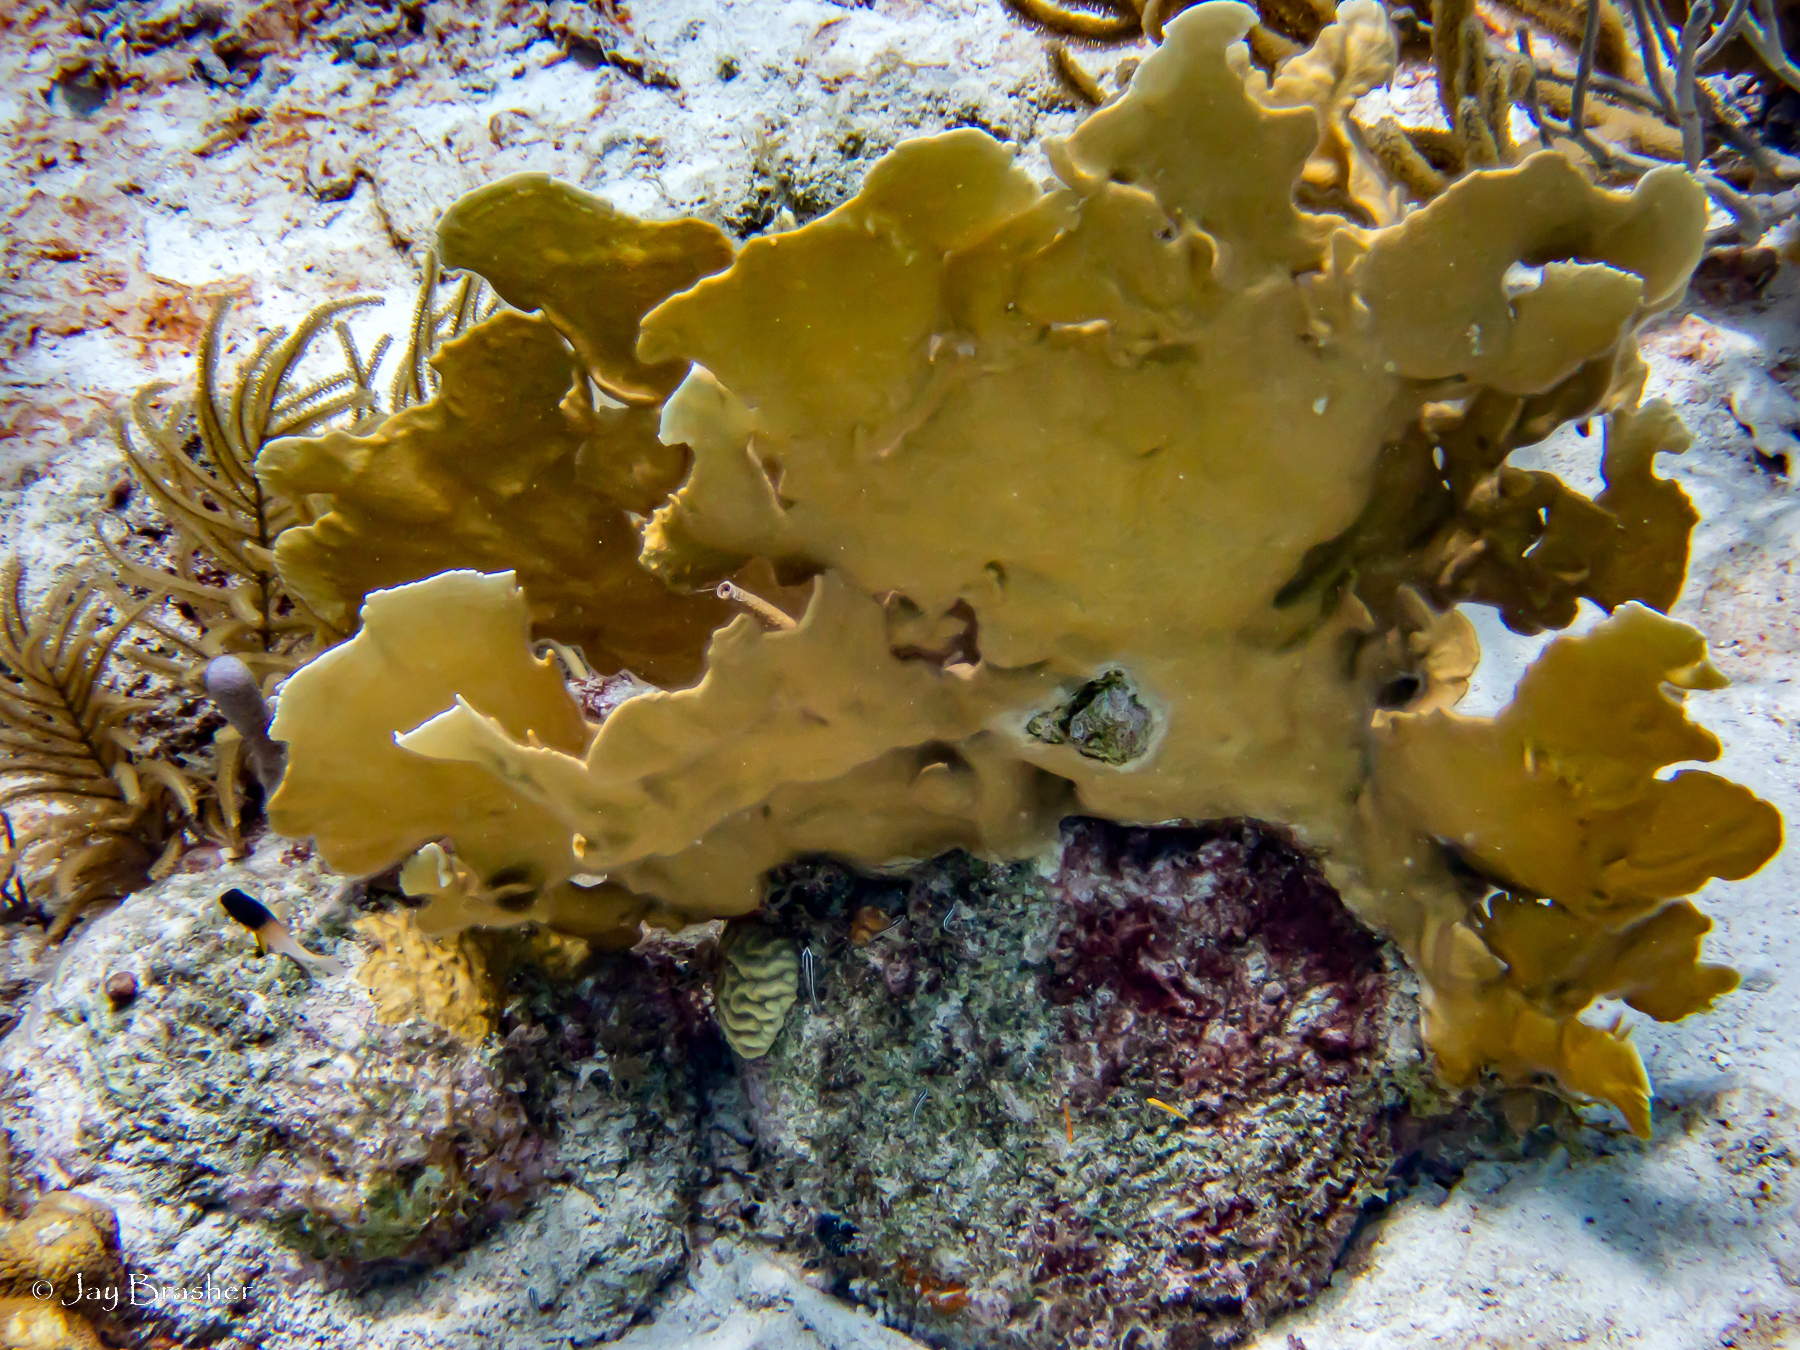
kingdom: Animalia
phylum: Cnidaria
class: Hydrozoa
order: Anthoathecata
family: Milleporidae
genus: Millepora
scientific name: Millepora complanata
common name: Bladed fire coral
